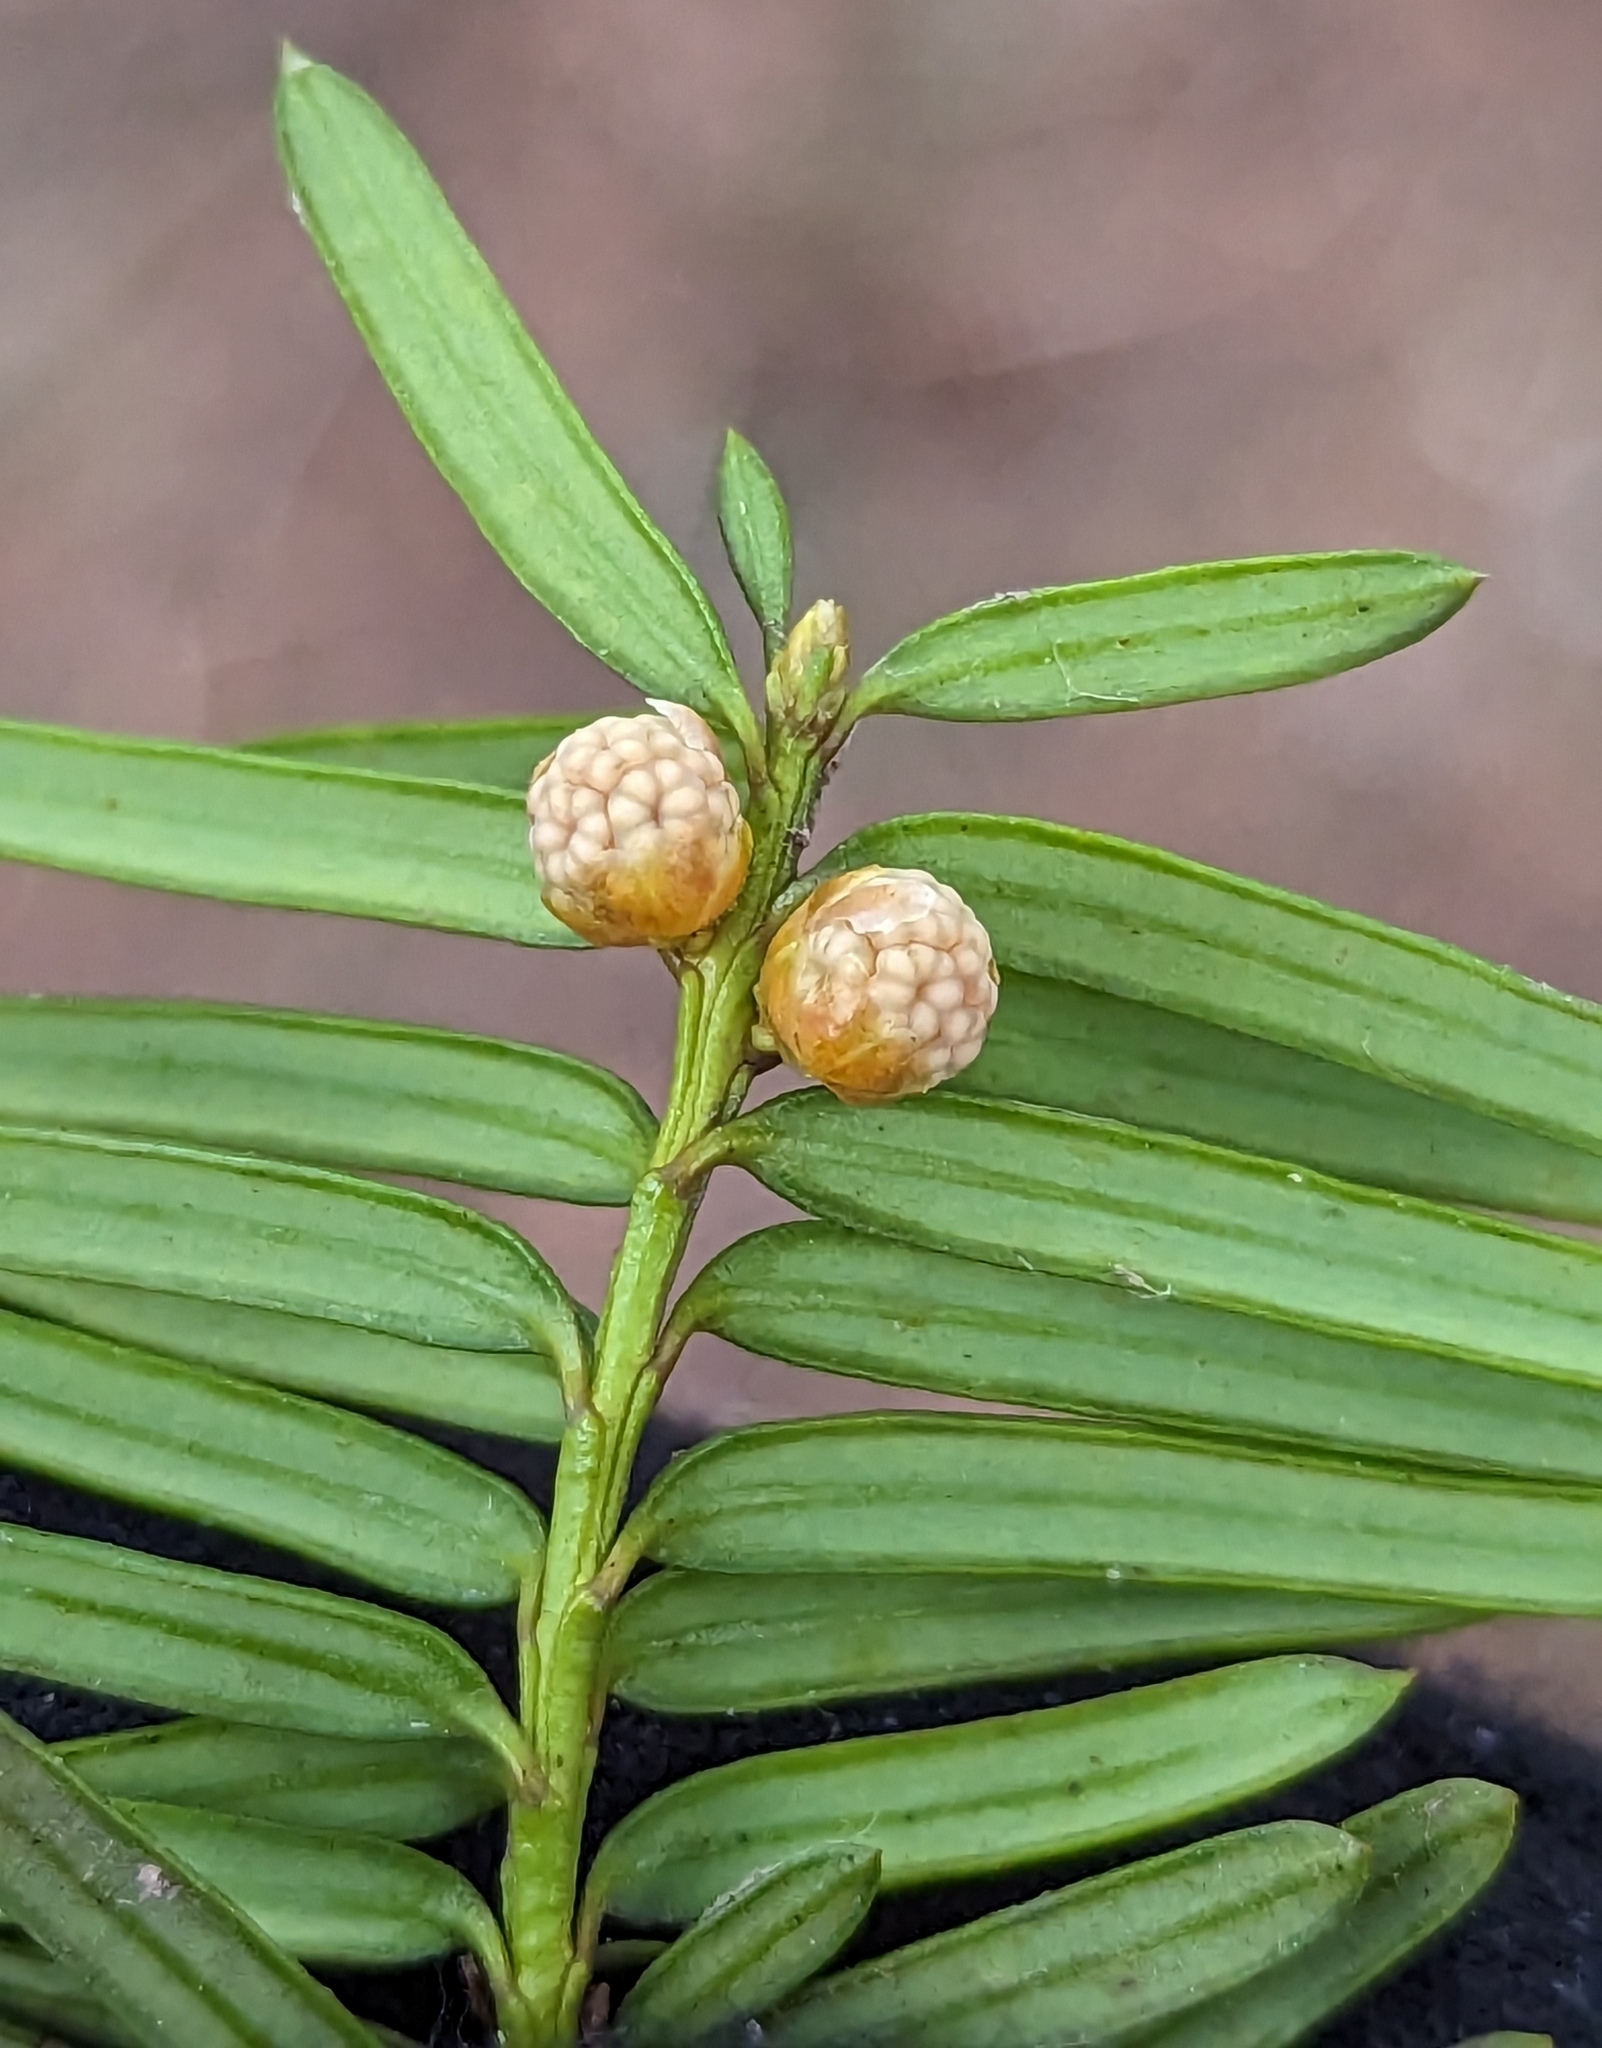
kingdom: Plantae
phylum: Tracheophyta
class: Pinopsida
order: Pinales
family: Taxaceae
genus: Taxus
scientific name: Taxus baccata
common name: Yew
